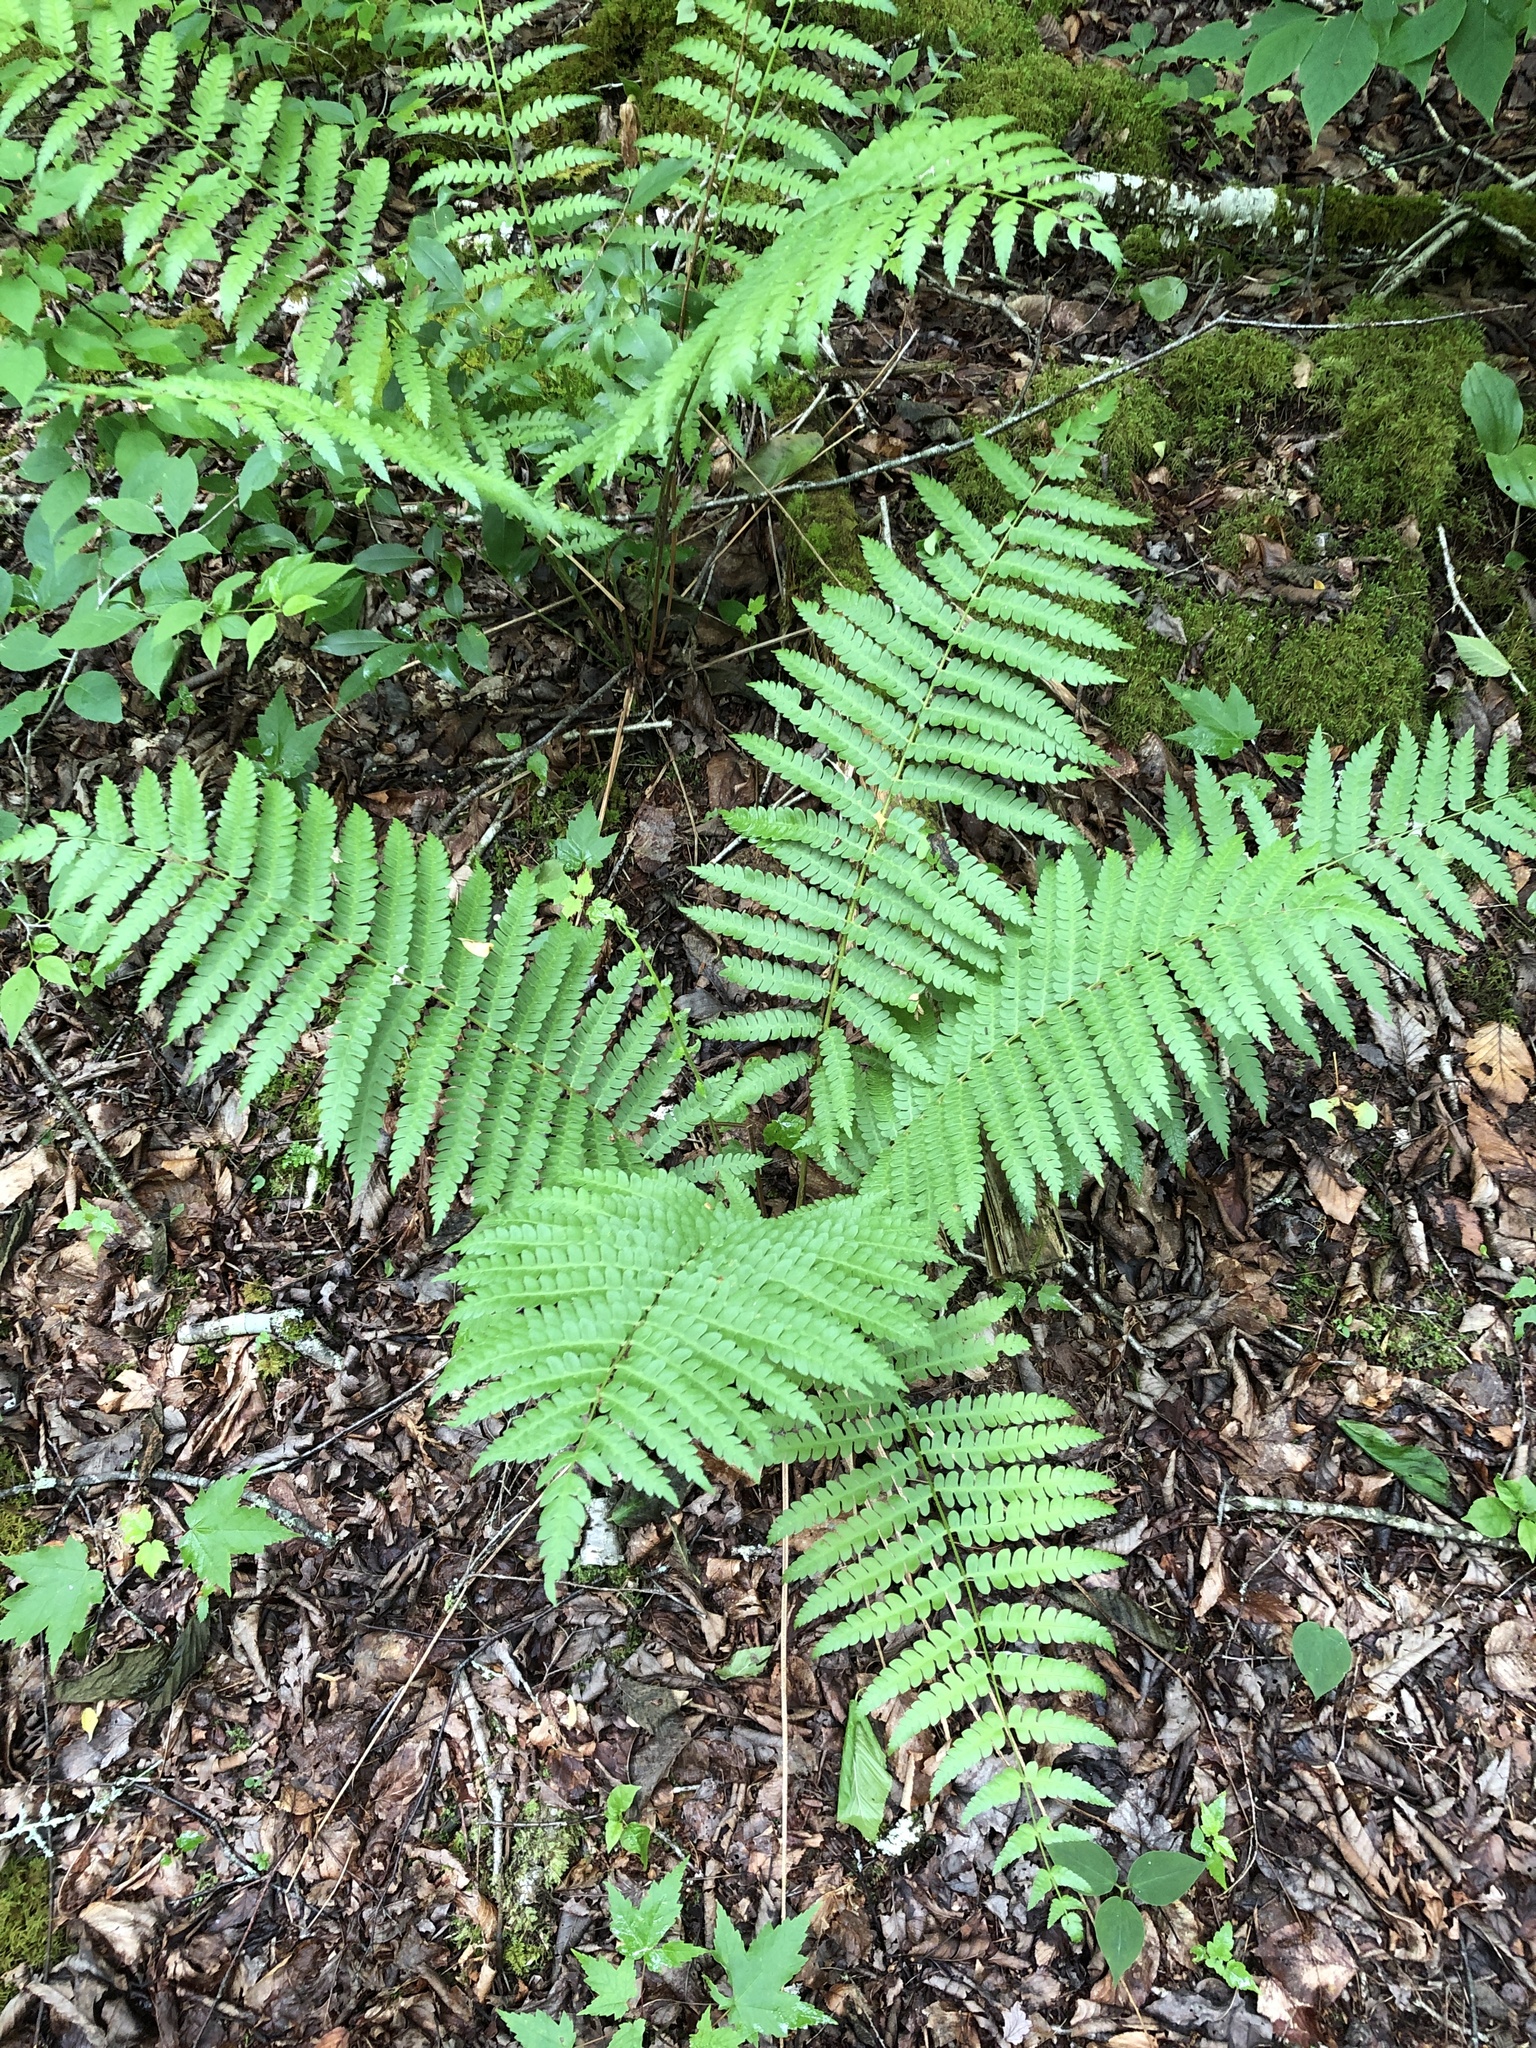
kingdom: Plantae
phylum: Tracheophyta
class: Polypodiopsida
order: Osmundales
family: Osmundaceae
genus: Osmundastrum
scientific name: Osmundastrum cinnamomeum
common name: Cinnamon fern
